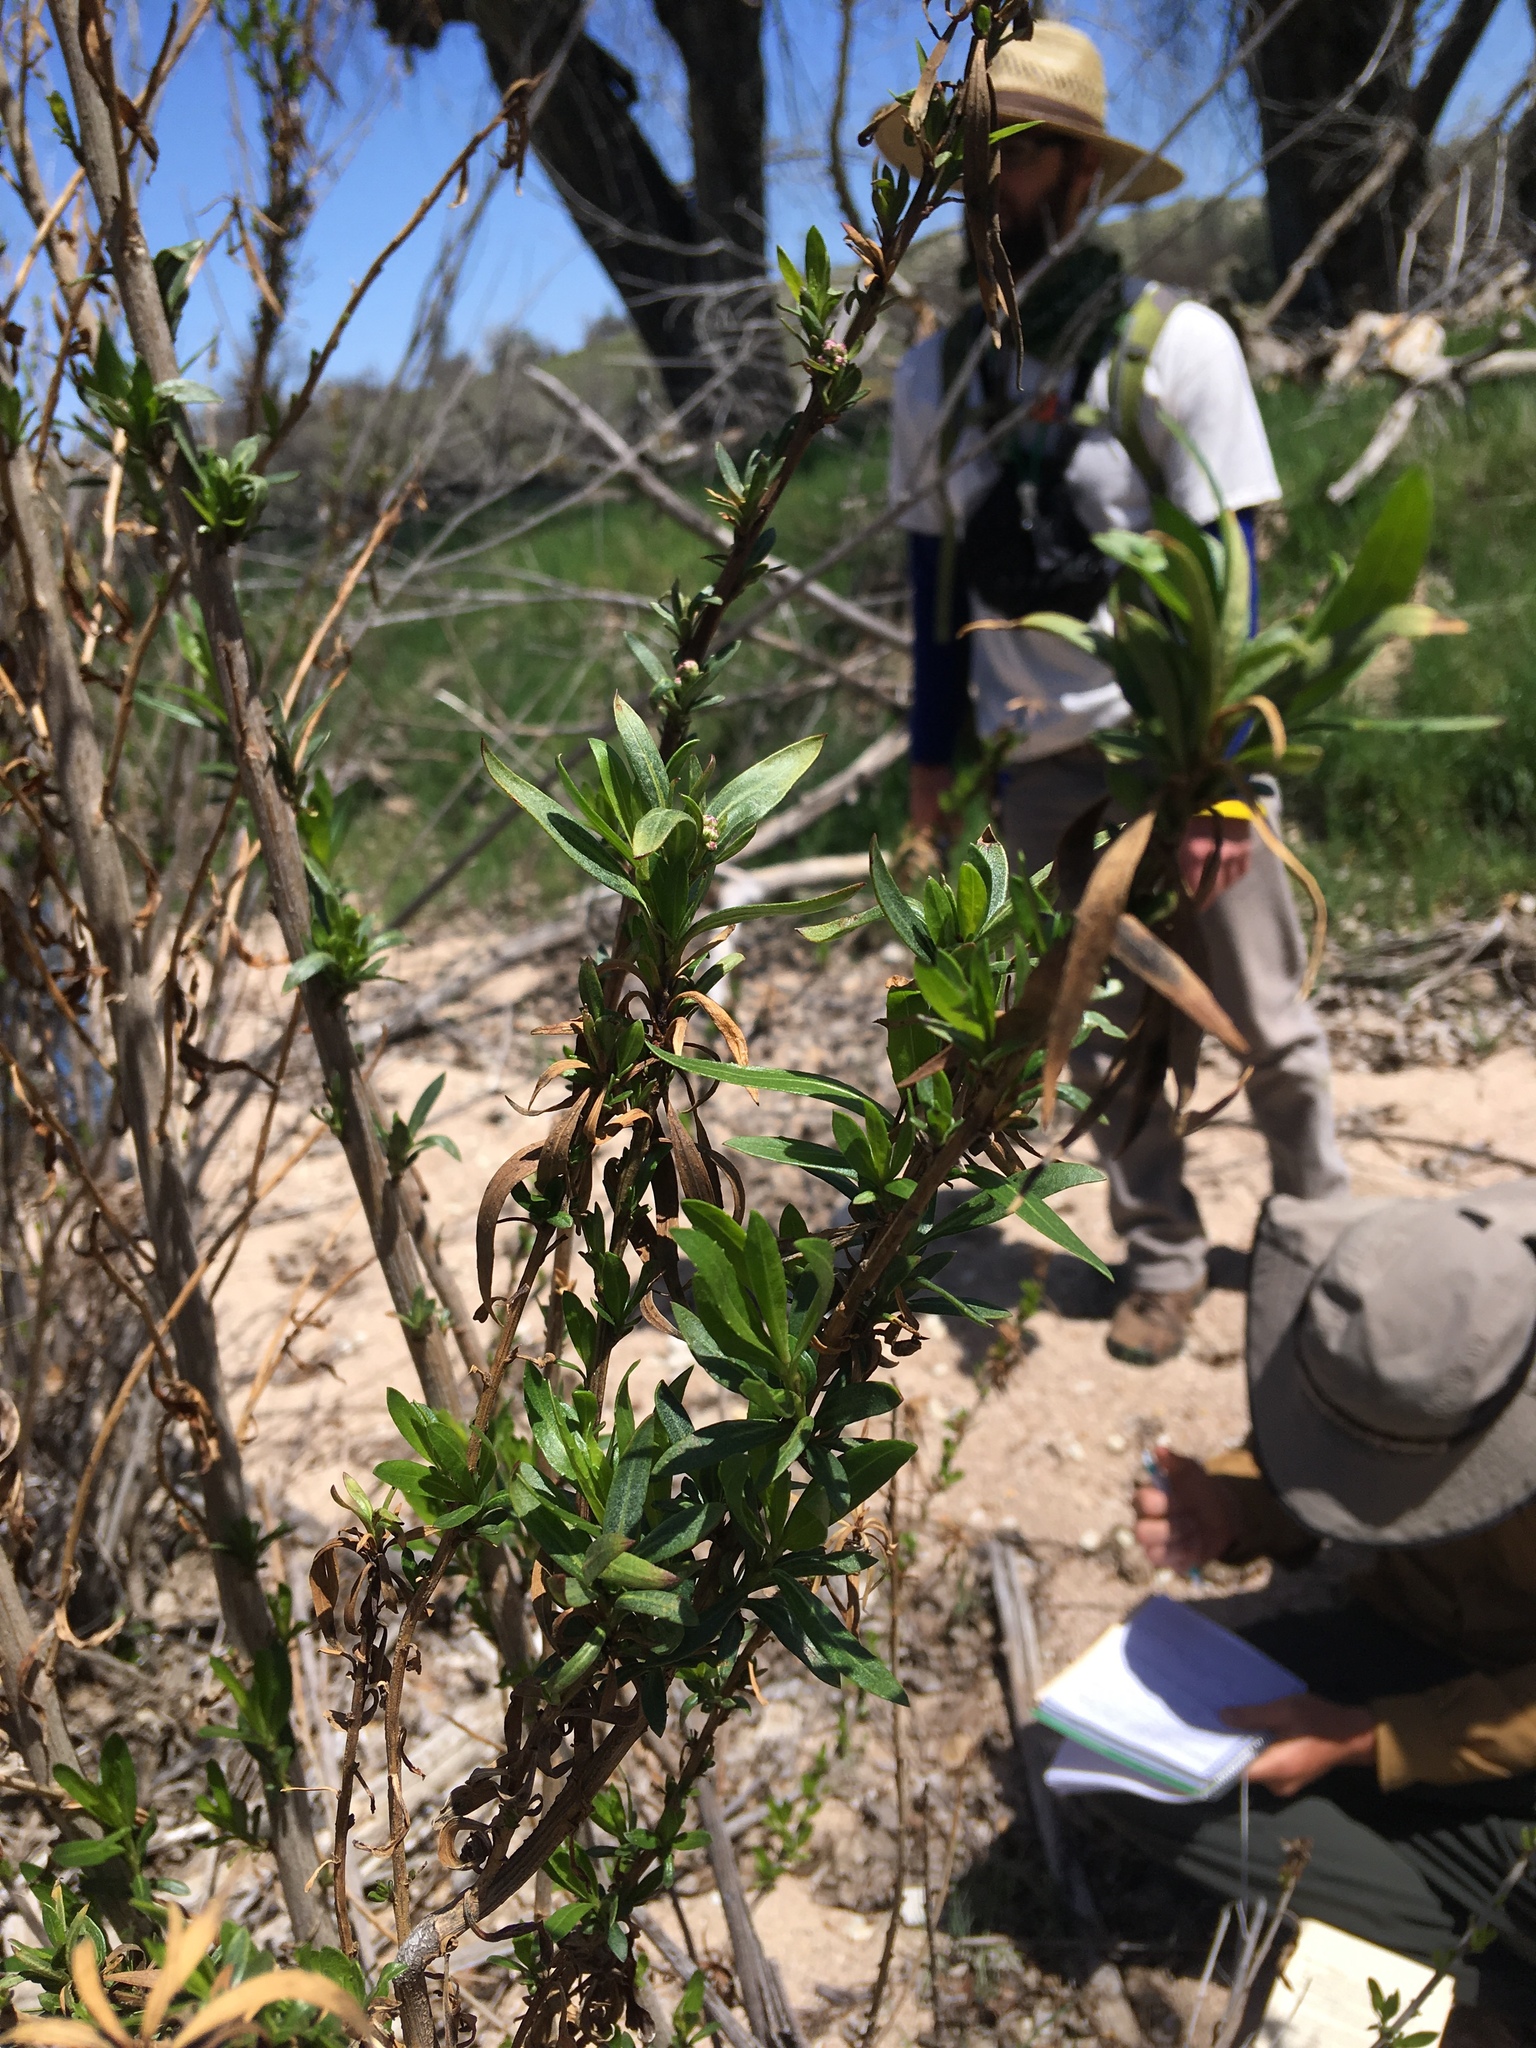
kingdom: Plantae
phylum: Tracheophyta
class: Magnoliopsida
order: Asterales
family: Asteraceae
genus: Baccharis
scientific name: Baccharis salicifolia
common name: Sticky baccharis
